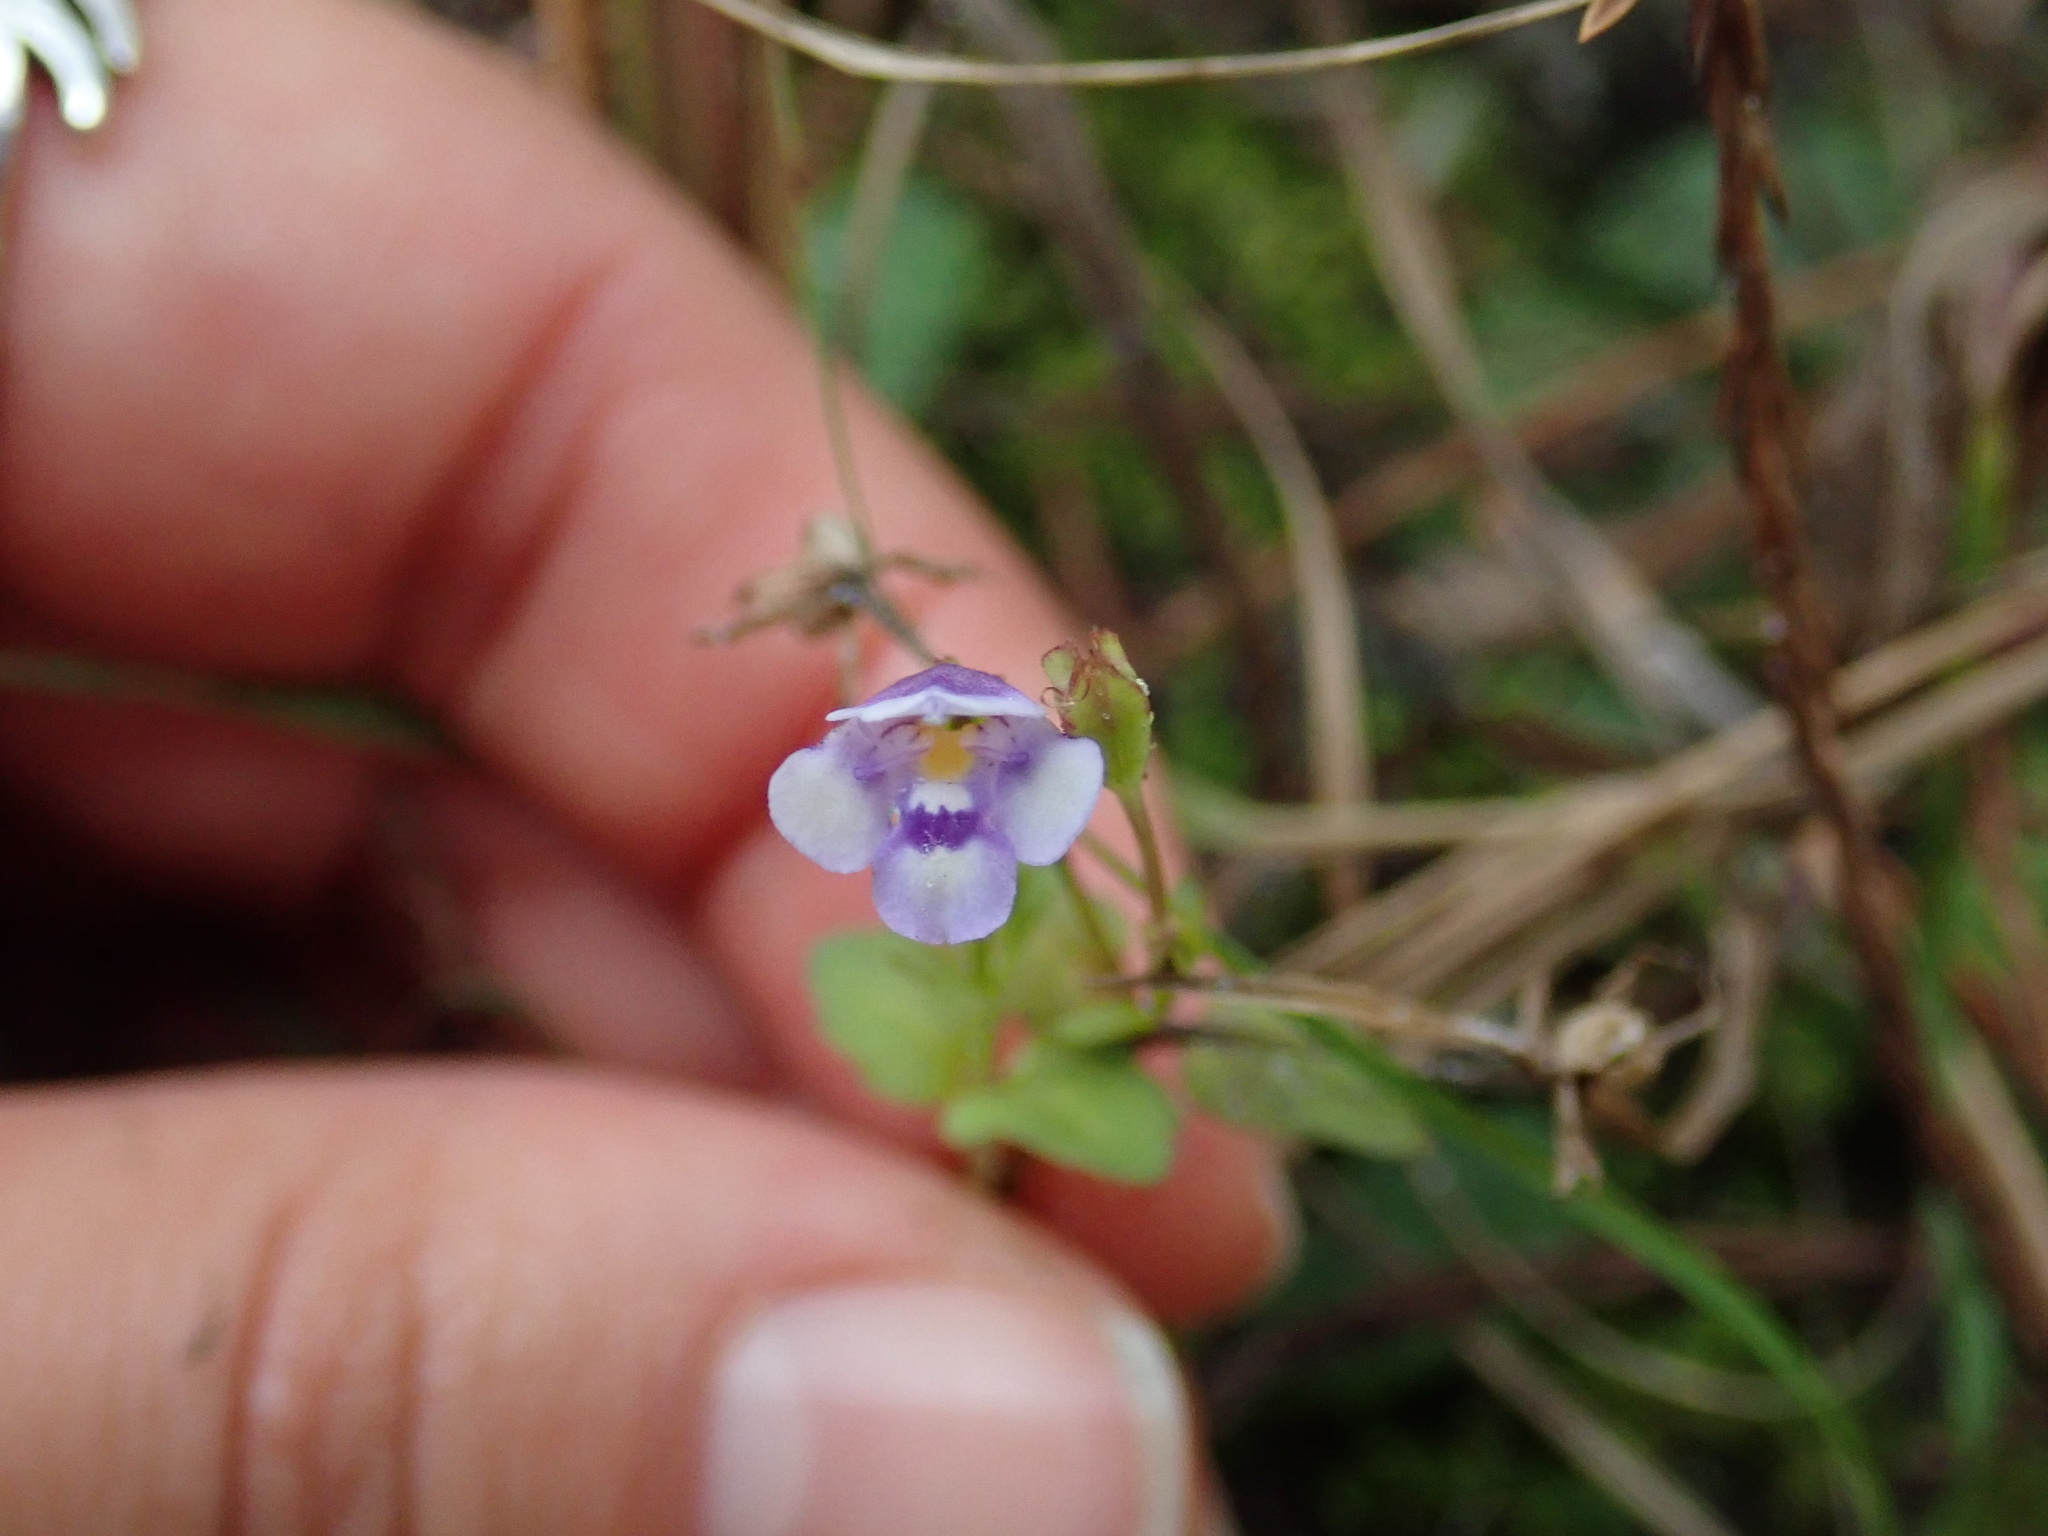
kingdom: Plantae
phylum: Tracheophyta
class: Magnoliopsida
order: Lamiales
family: Linderniaceae
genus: Torenia
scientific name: Torenia crustacea
